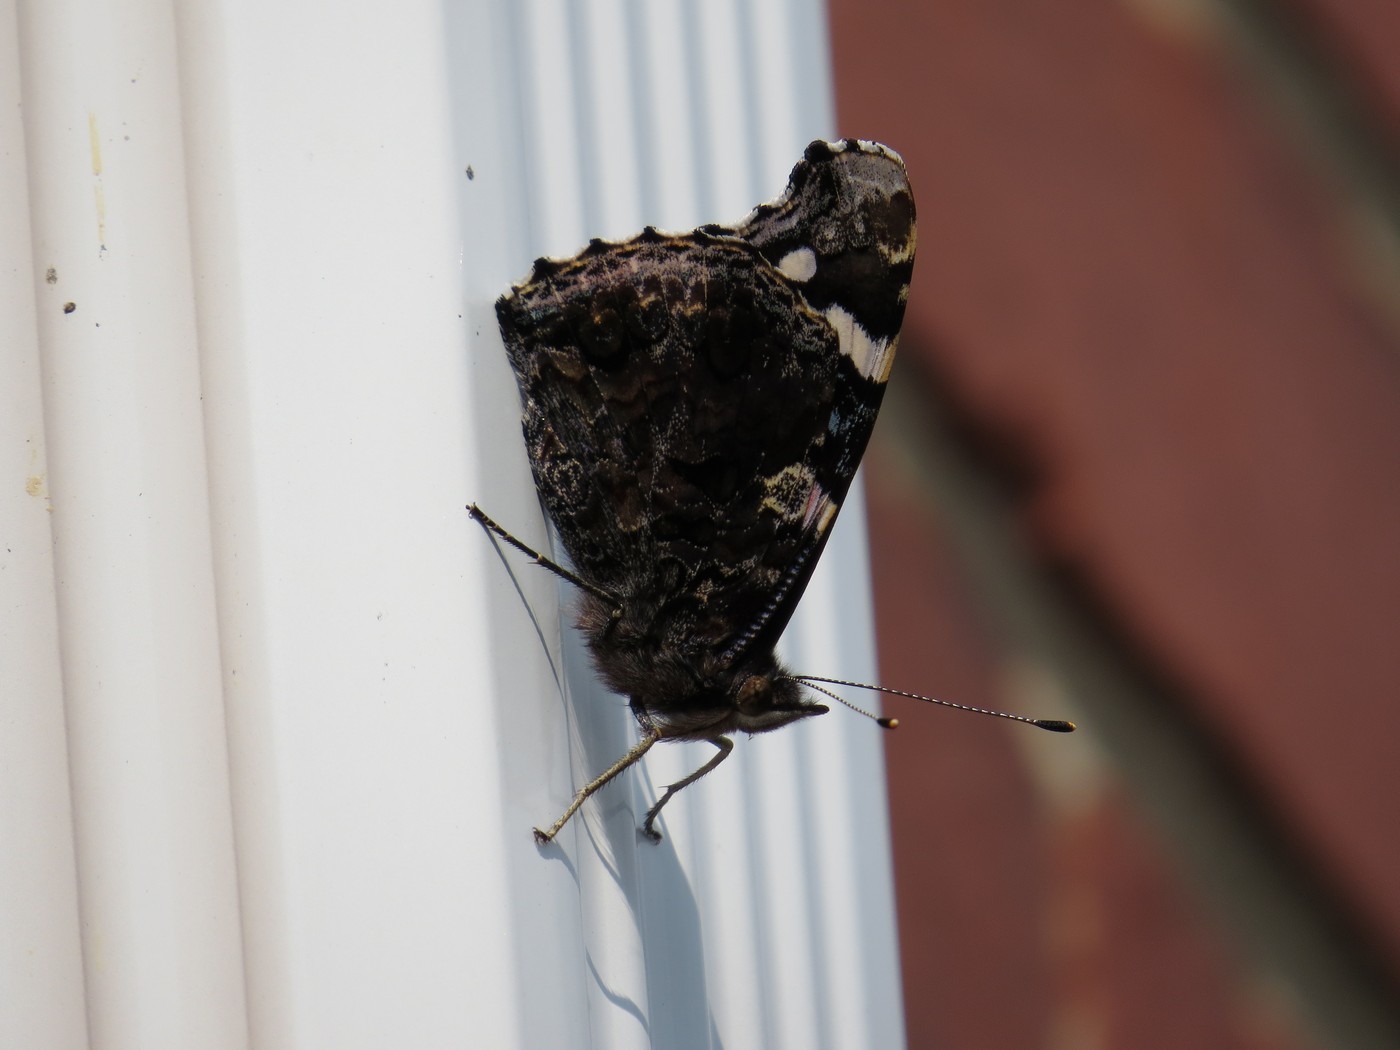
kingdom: Animalia
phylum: Arthropoda
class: Insecta
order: Lepidoptera
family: Nymphalidae
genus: Vanessa
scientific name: Vanessa atalanta
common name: Red admiral
